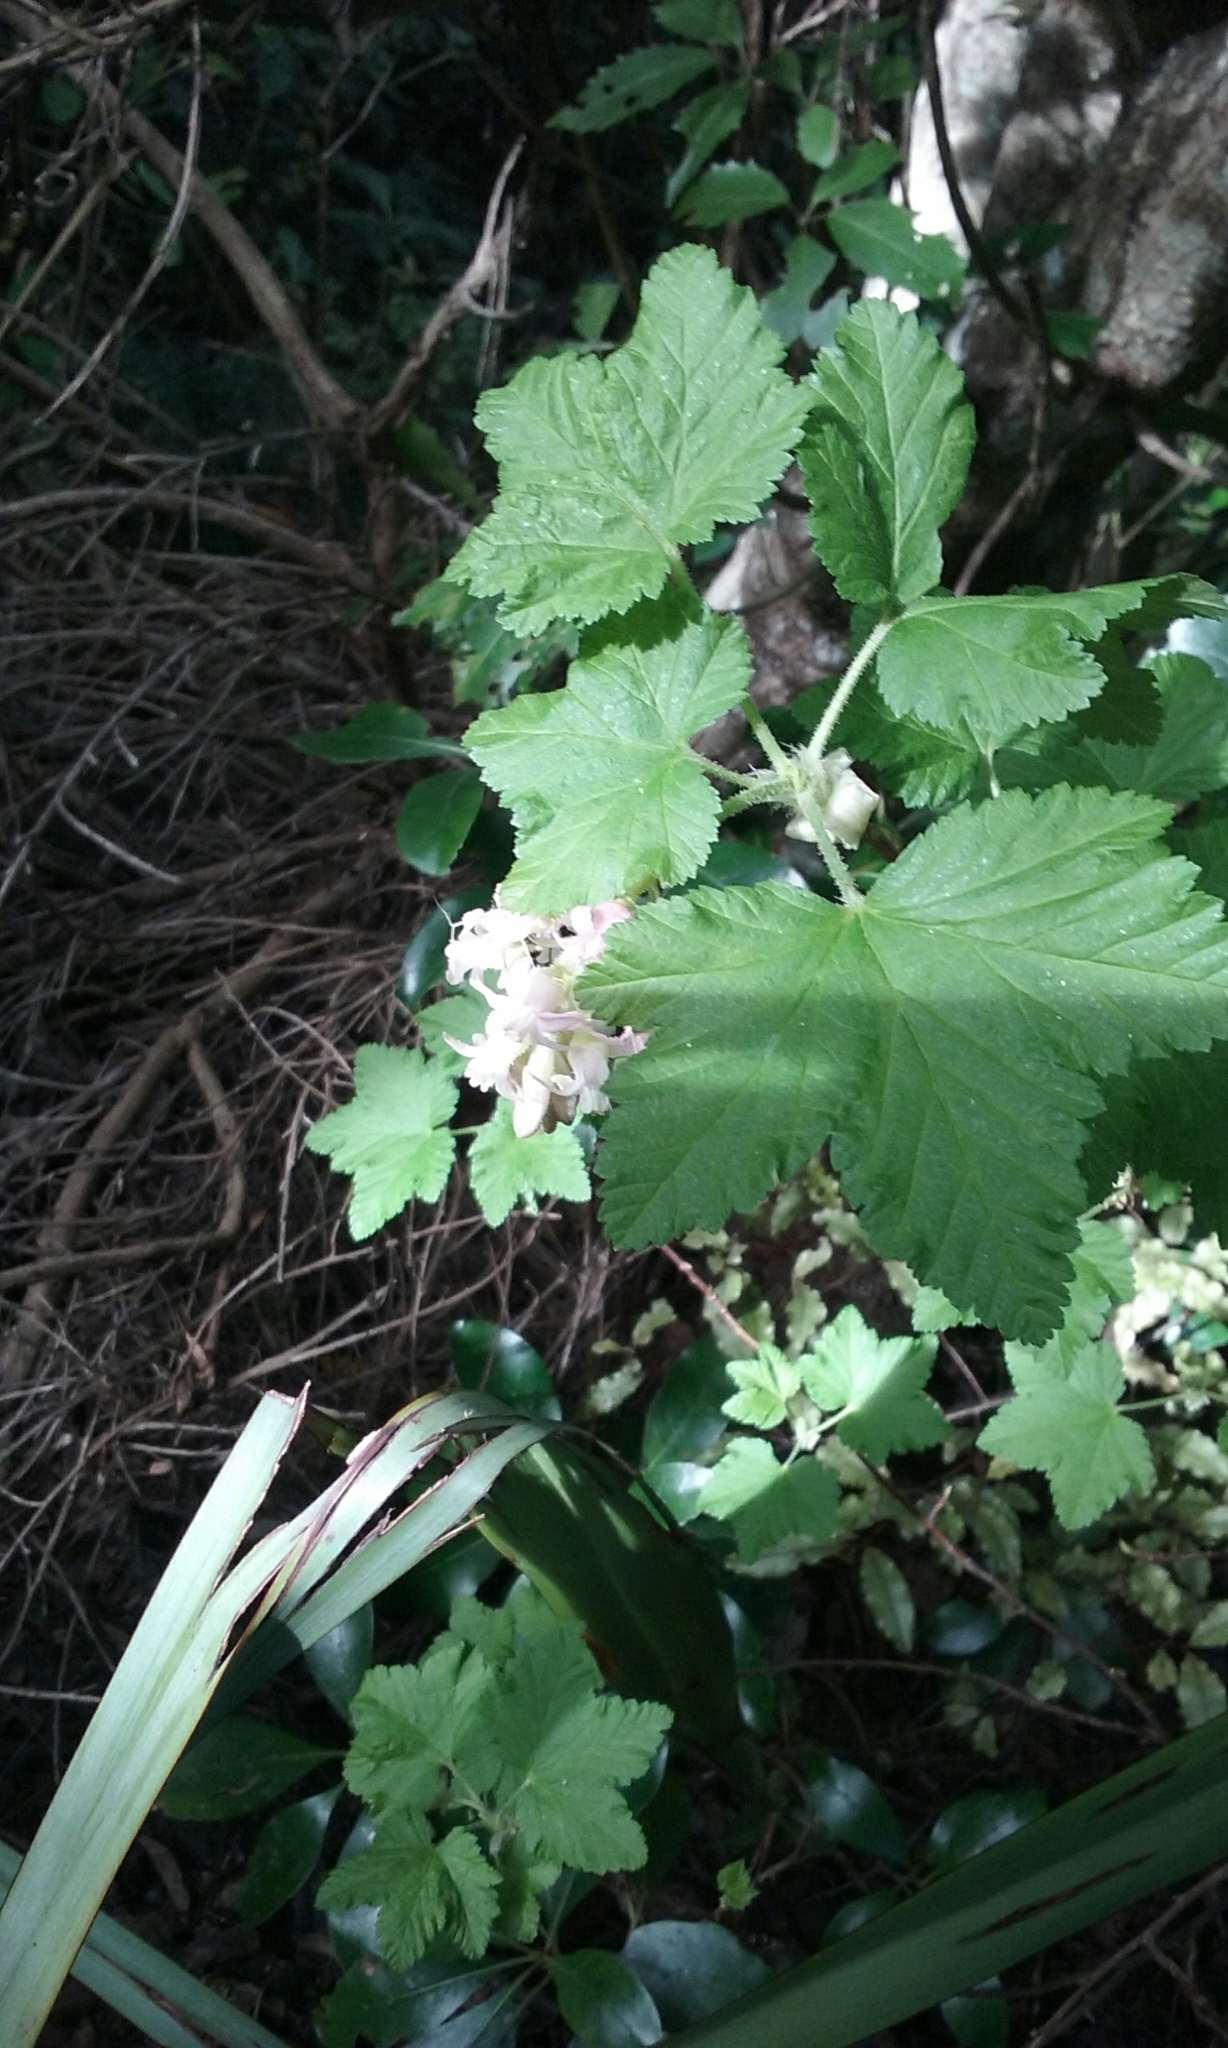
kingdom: Plantae
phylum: Tracheophyta
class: Magnoliopsida
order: Saxifragales
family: Grossulariaceae
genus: Ribes
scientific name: Ribes sanguineum
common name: Flowering currant
